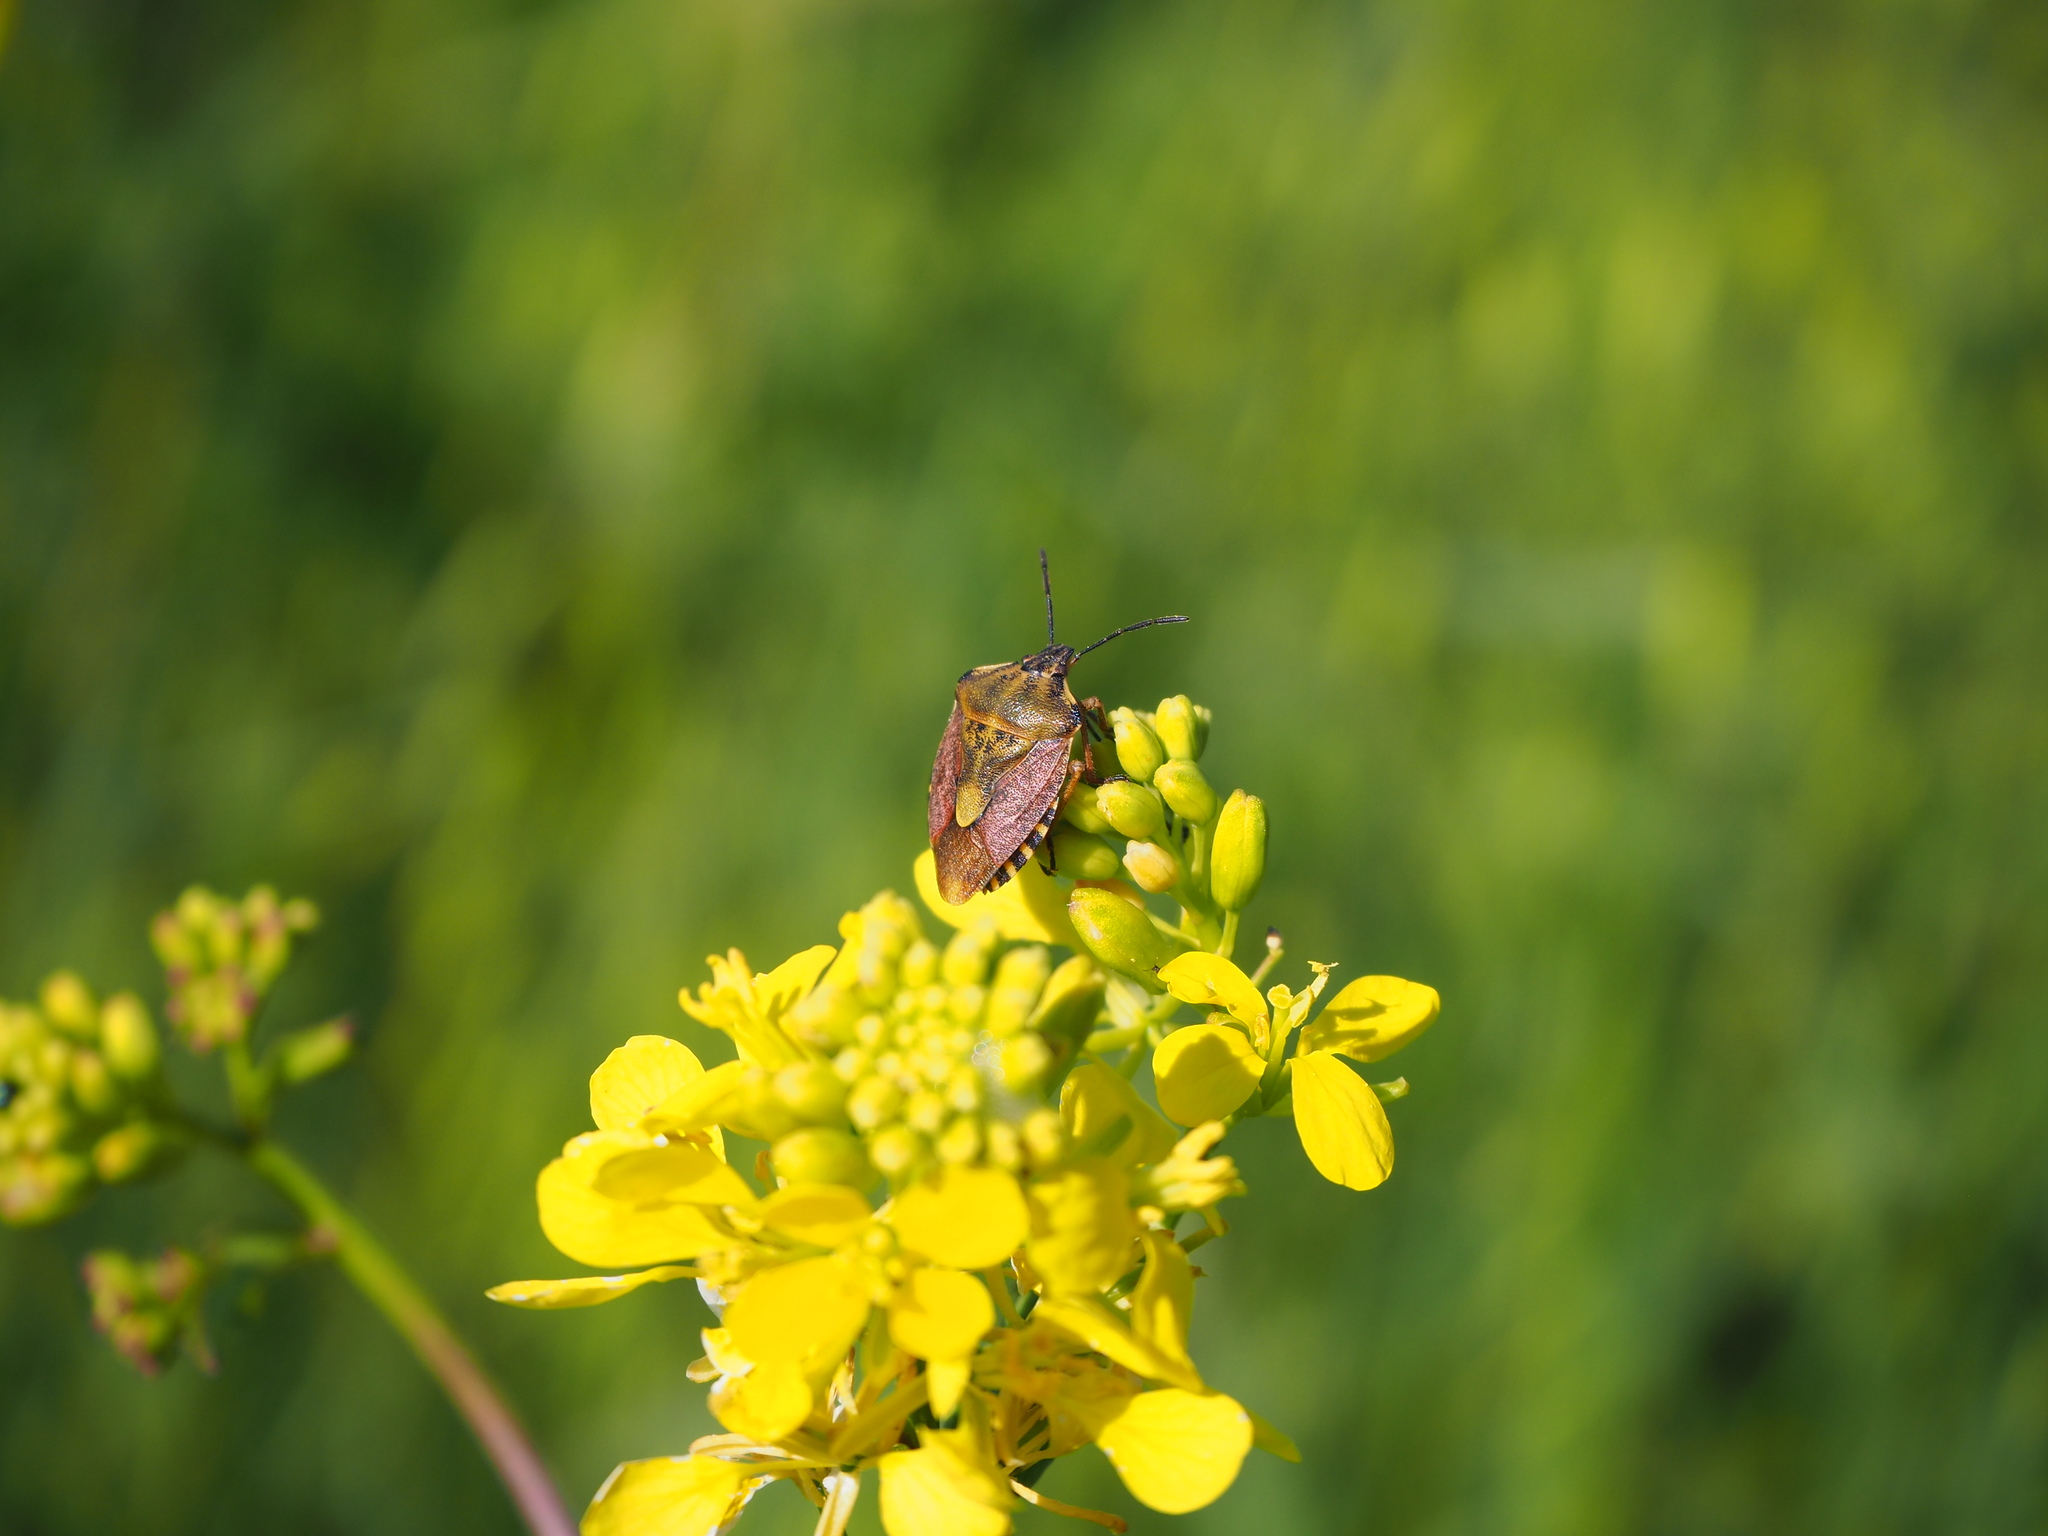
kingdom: Animalia
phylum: Arthropoda
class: Insecta
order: Hemiptera
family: Pentatomidae
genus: Carpocoris
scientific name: Carpocoris purpureipennis
